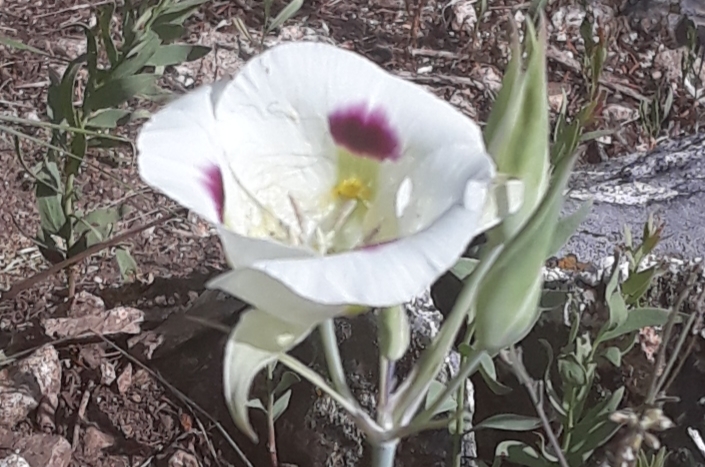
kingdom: Plantae
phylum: Tracheophyta
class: Liliopsida
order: Liliales
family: Liliaceae
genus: Calochortus
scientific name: Calochortus eurycarpus
